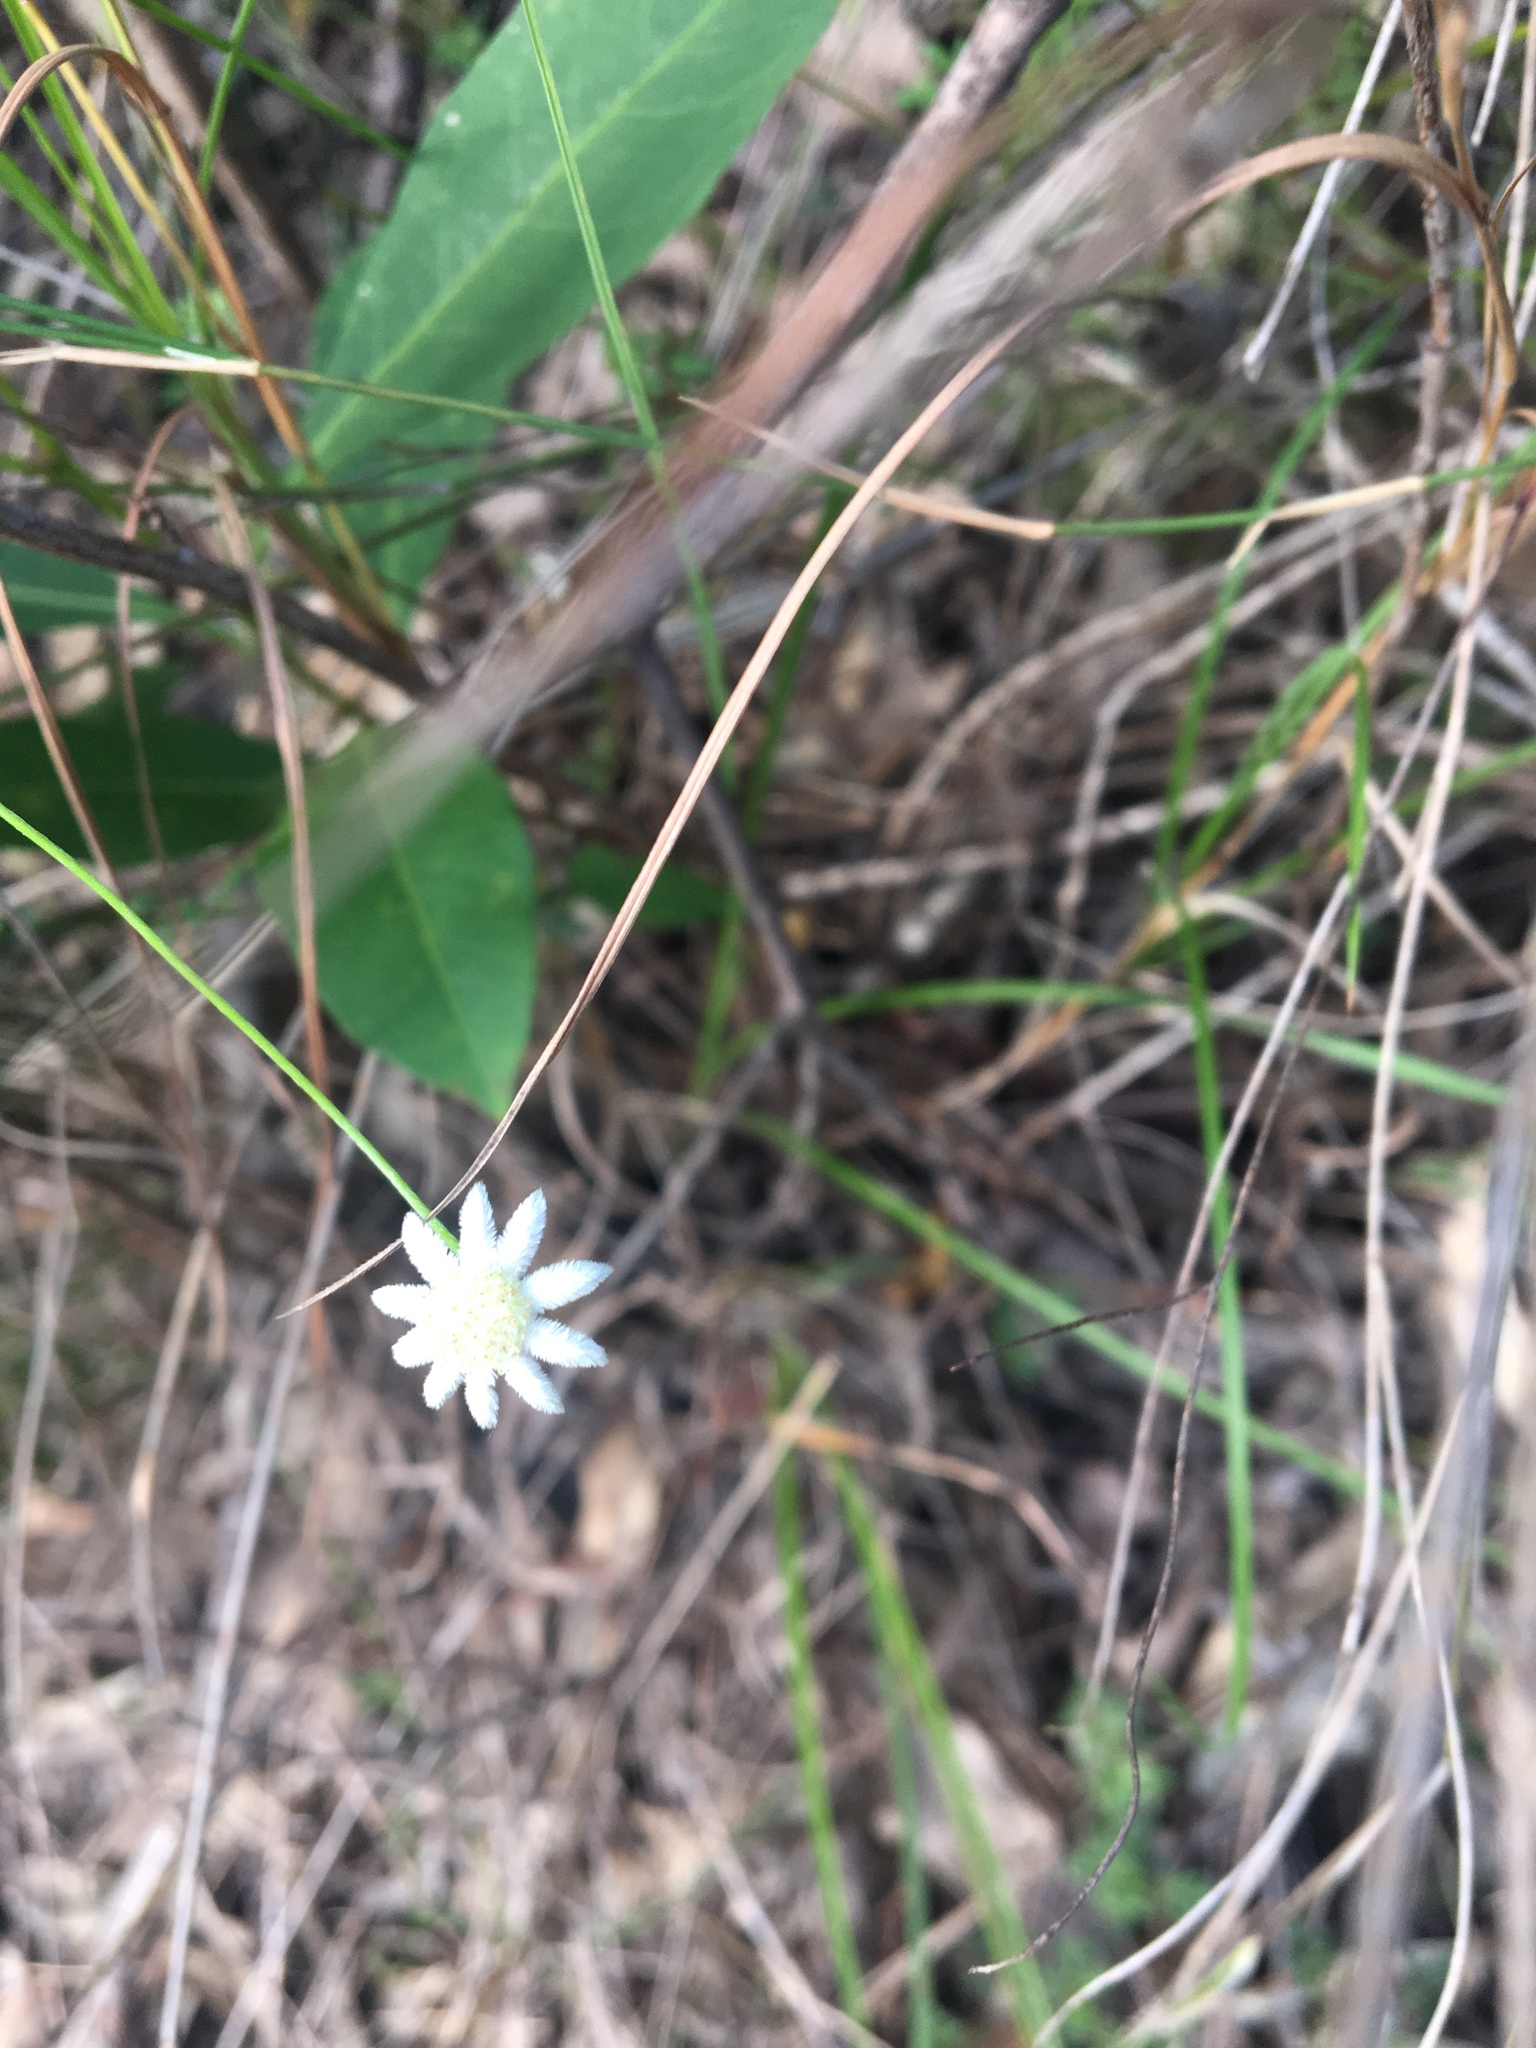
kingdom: Plantae
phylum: Tracheophyta
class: Magnoliopsida
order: Apiales
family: Apiaceae
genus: Actinotus
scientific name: Actinotus minor
